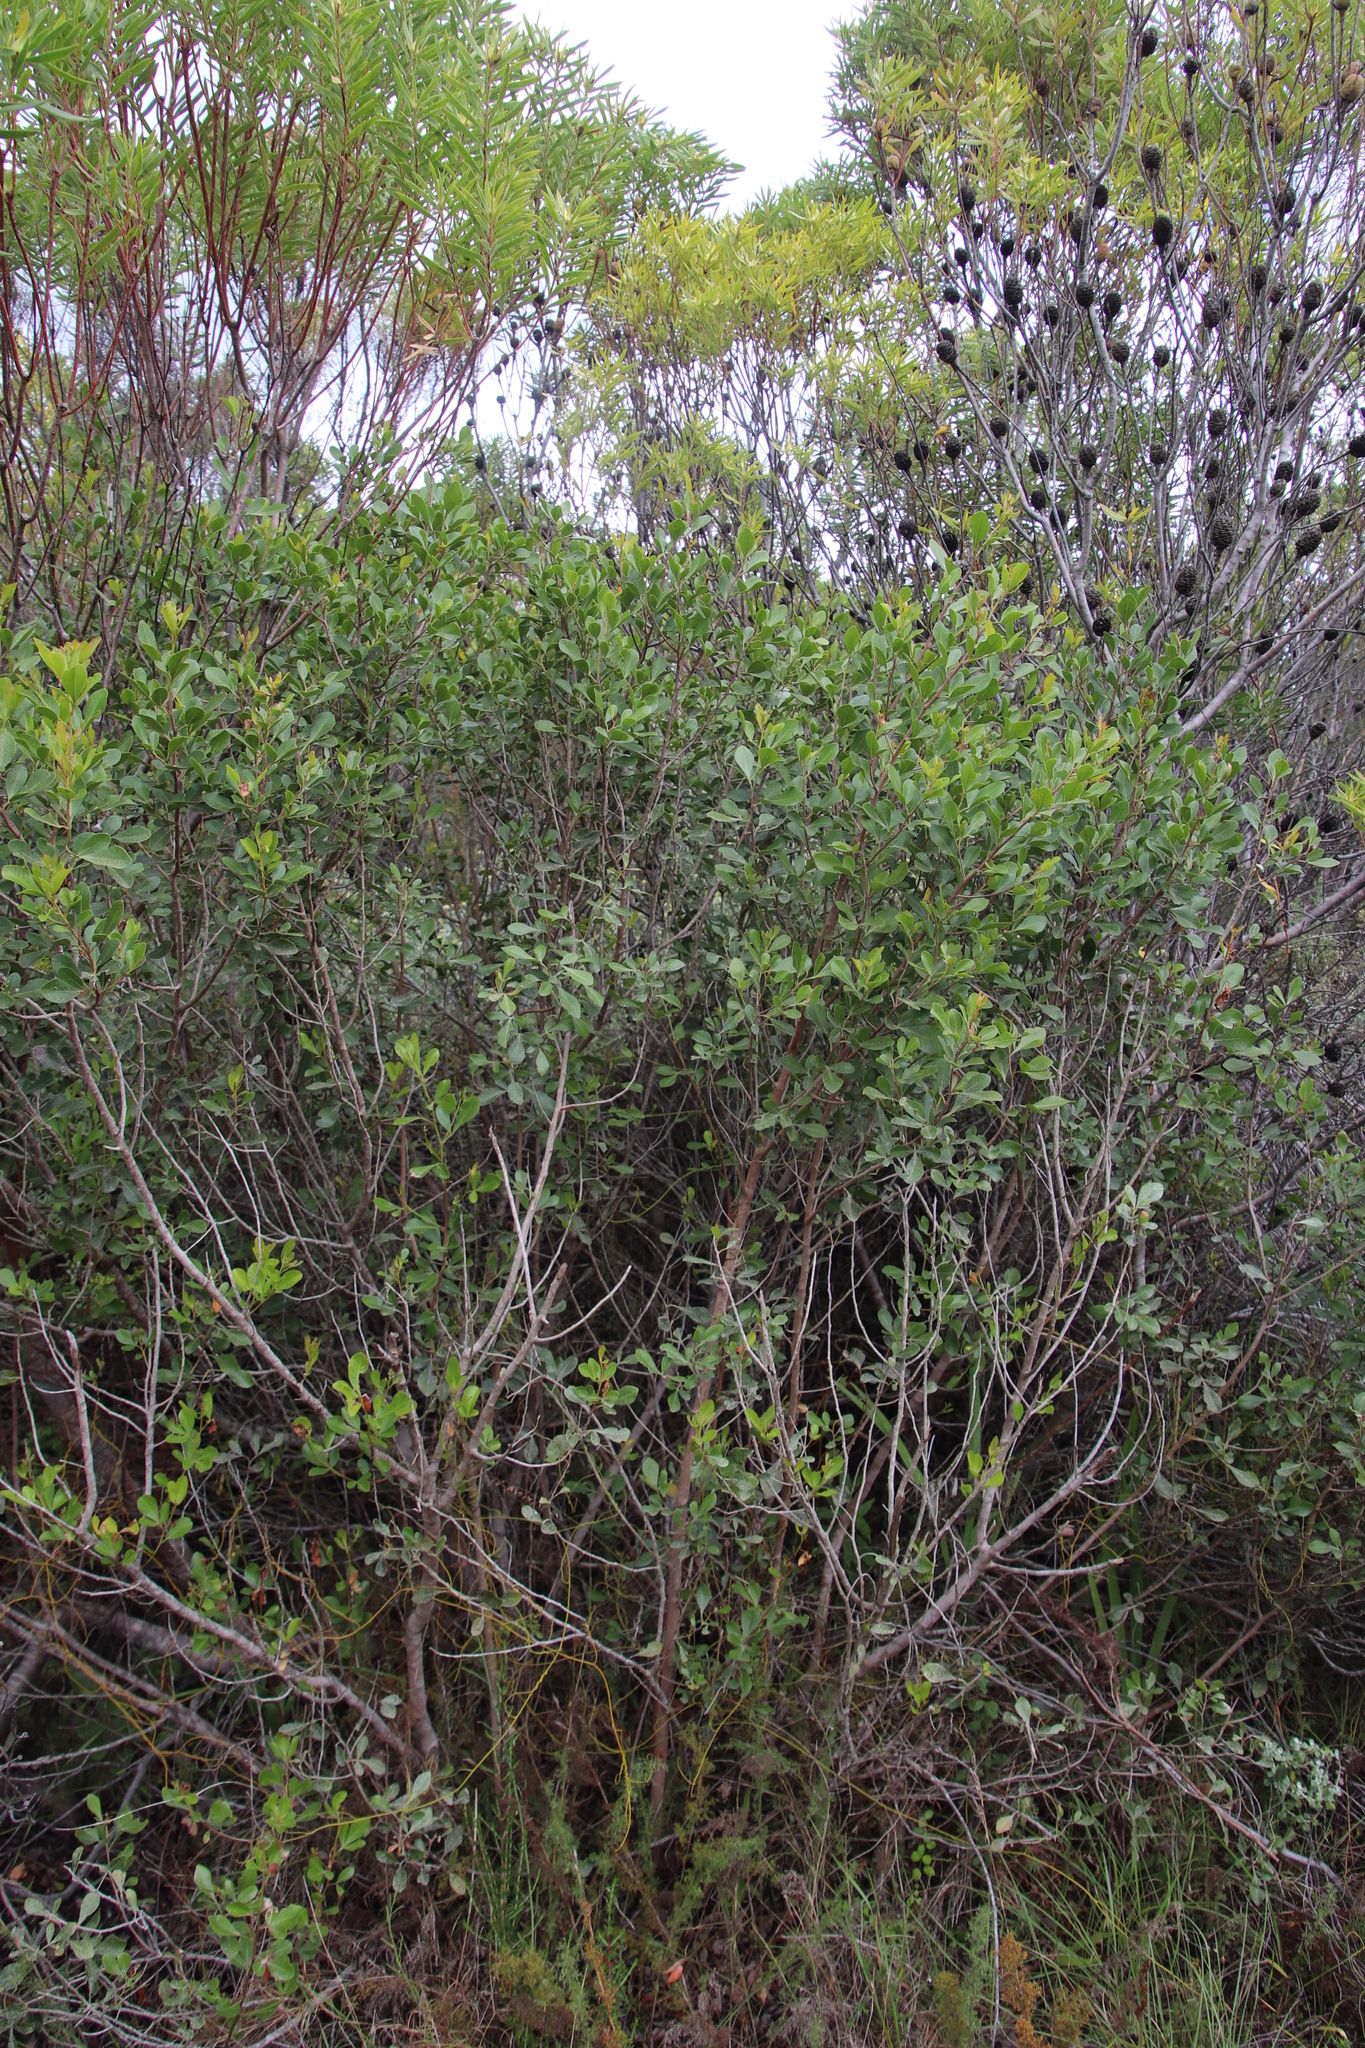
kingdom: Plantae
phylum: Tracheophyta
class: Magnoliopsida
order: Sapindales
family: Anacardiaceae
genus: Searsia
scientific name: Searsia lucida
